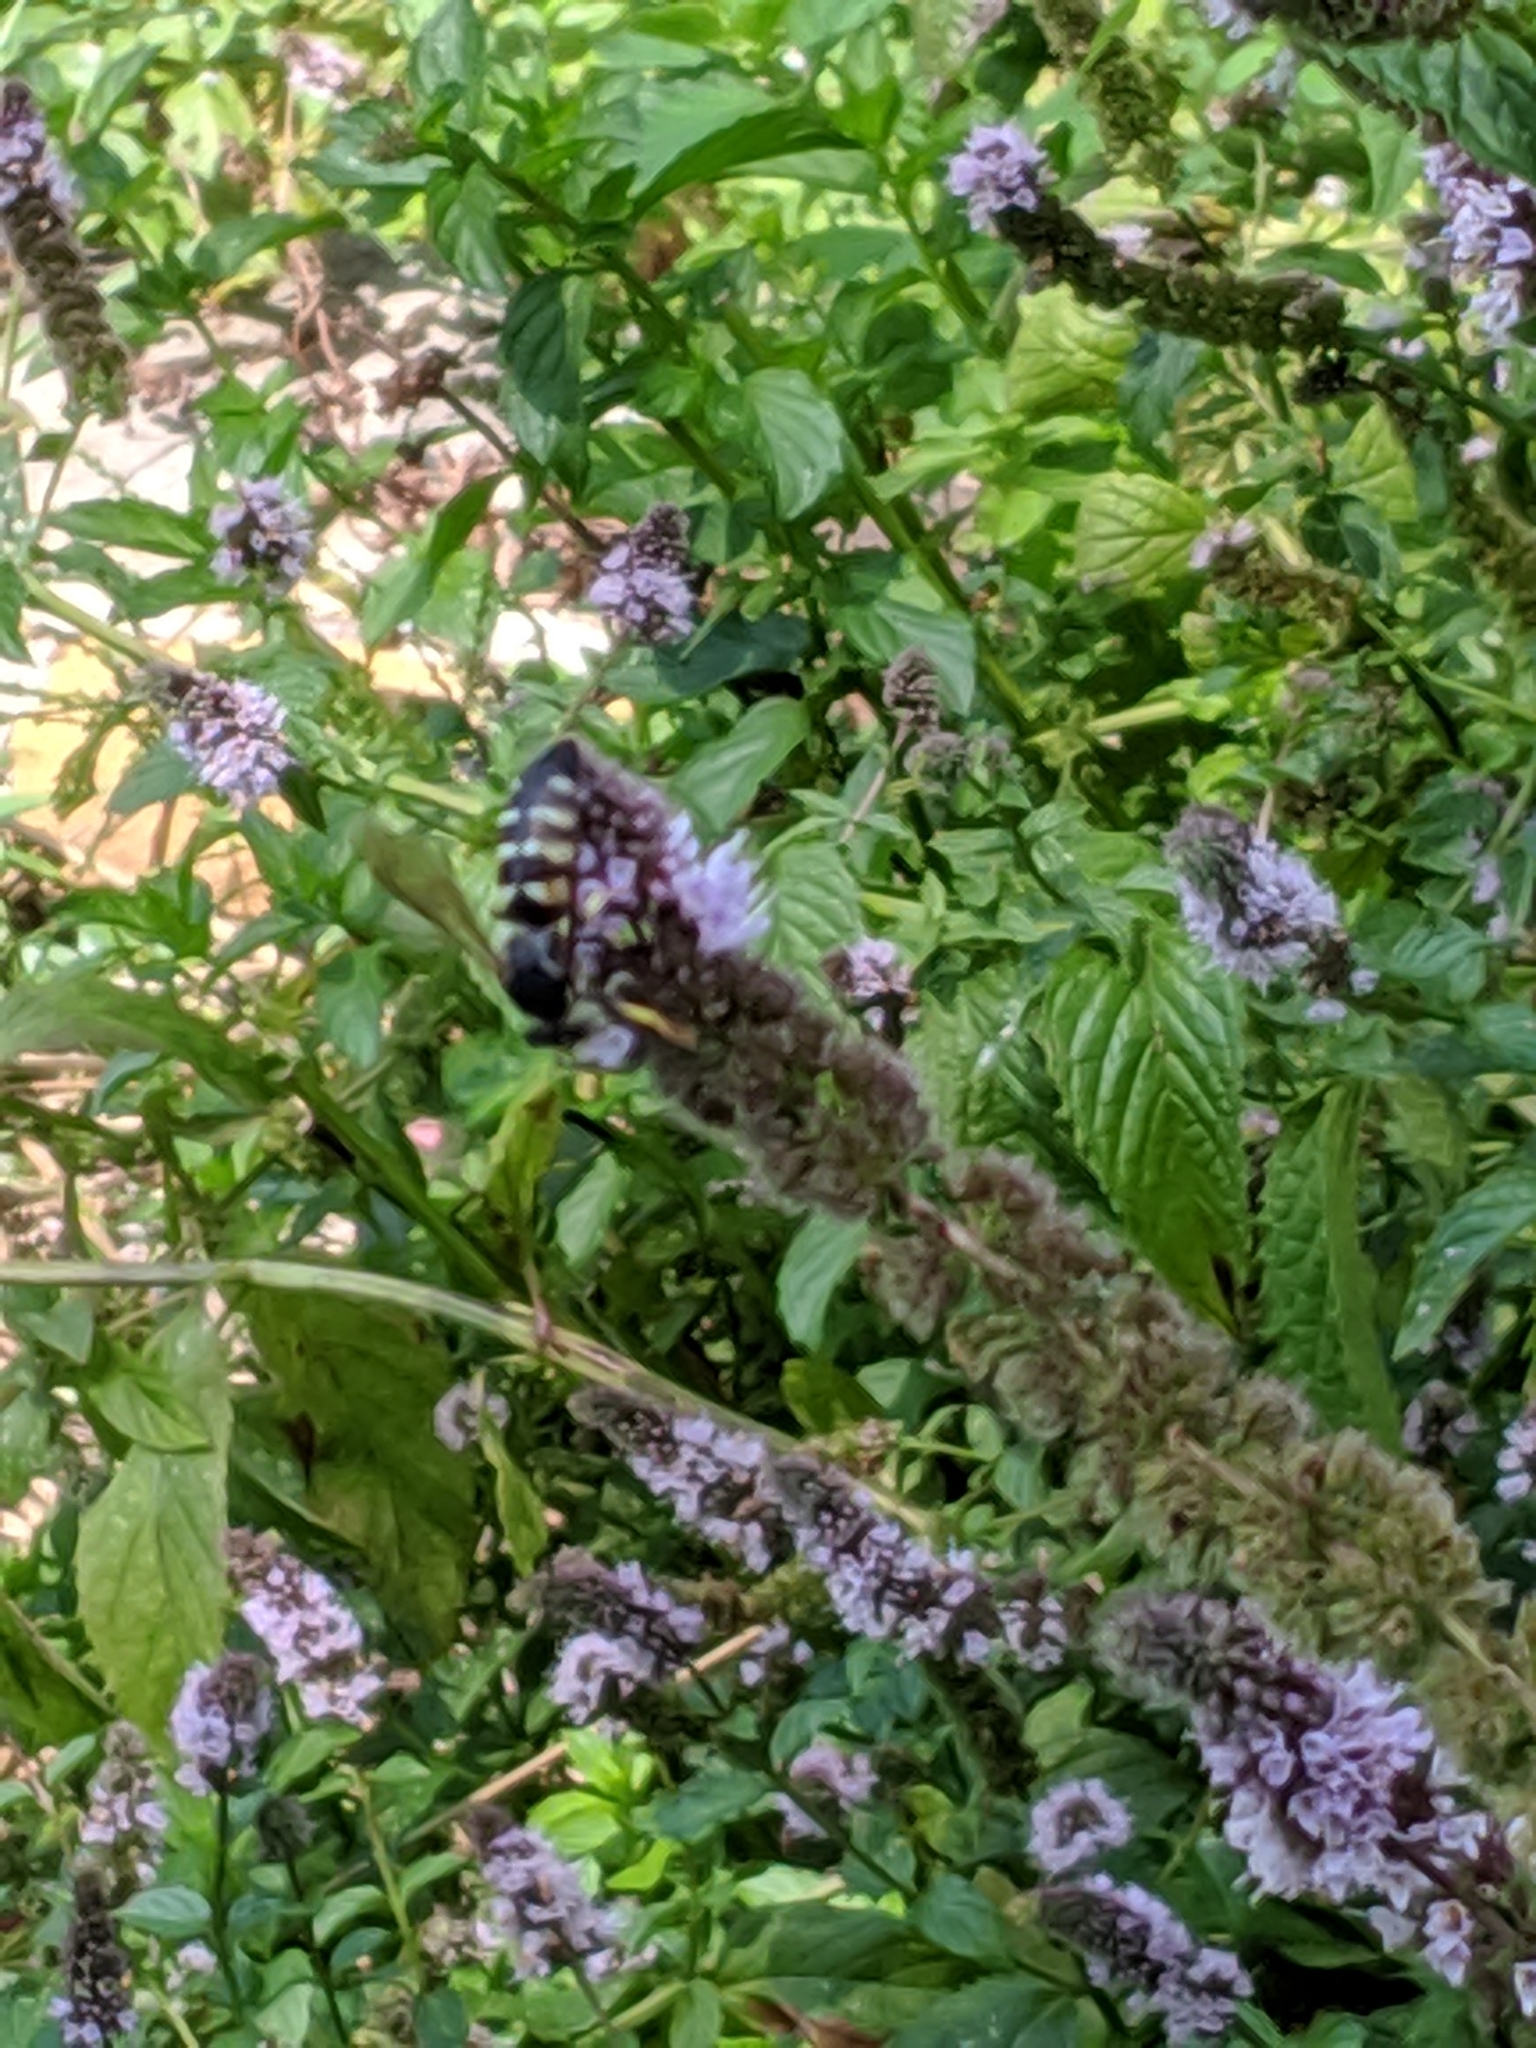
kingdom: Animalia
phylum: Arthropoda
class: Insecta
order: Hymenoptera
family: Crabronidae
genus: Bicyrtes
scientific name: Bicyrtes quadrifasciatus
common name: Four-banded stink bug hunter wasp
